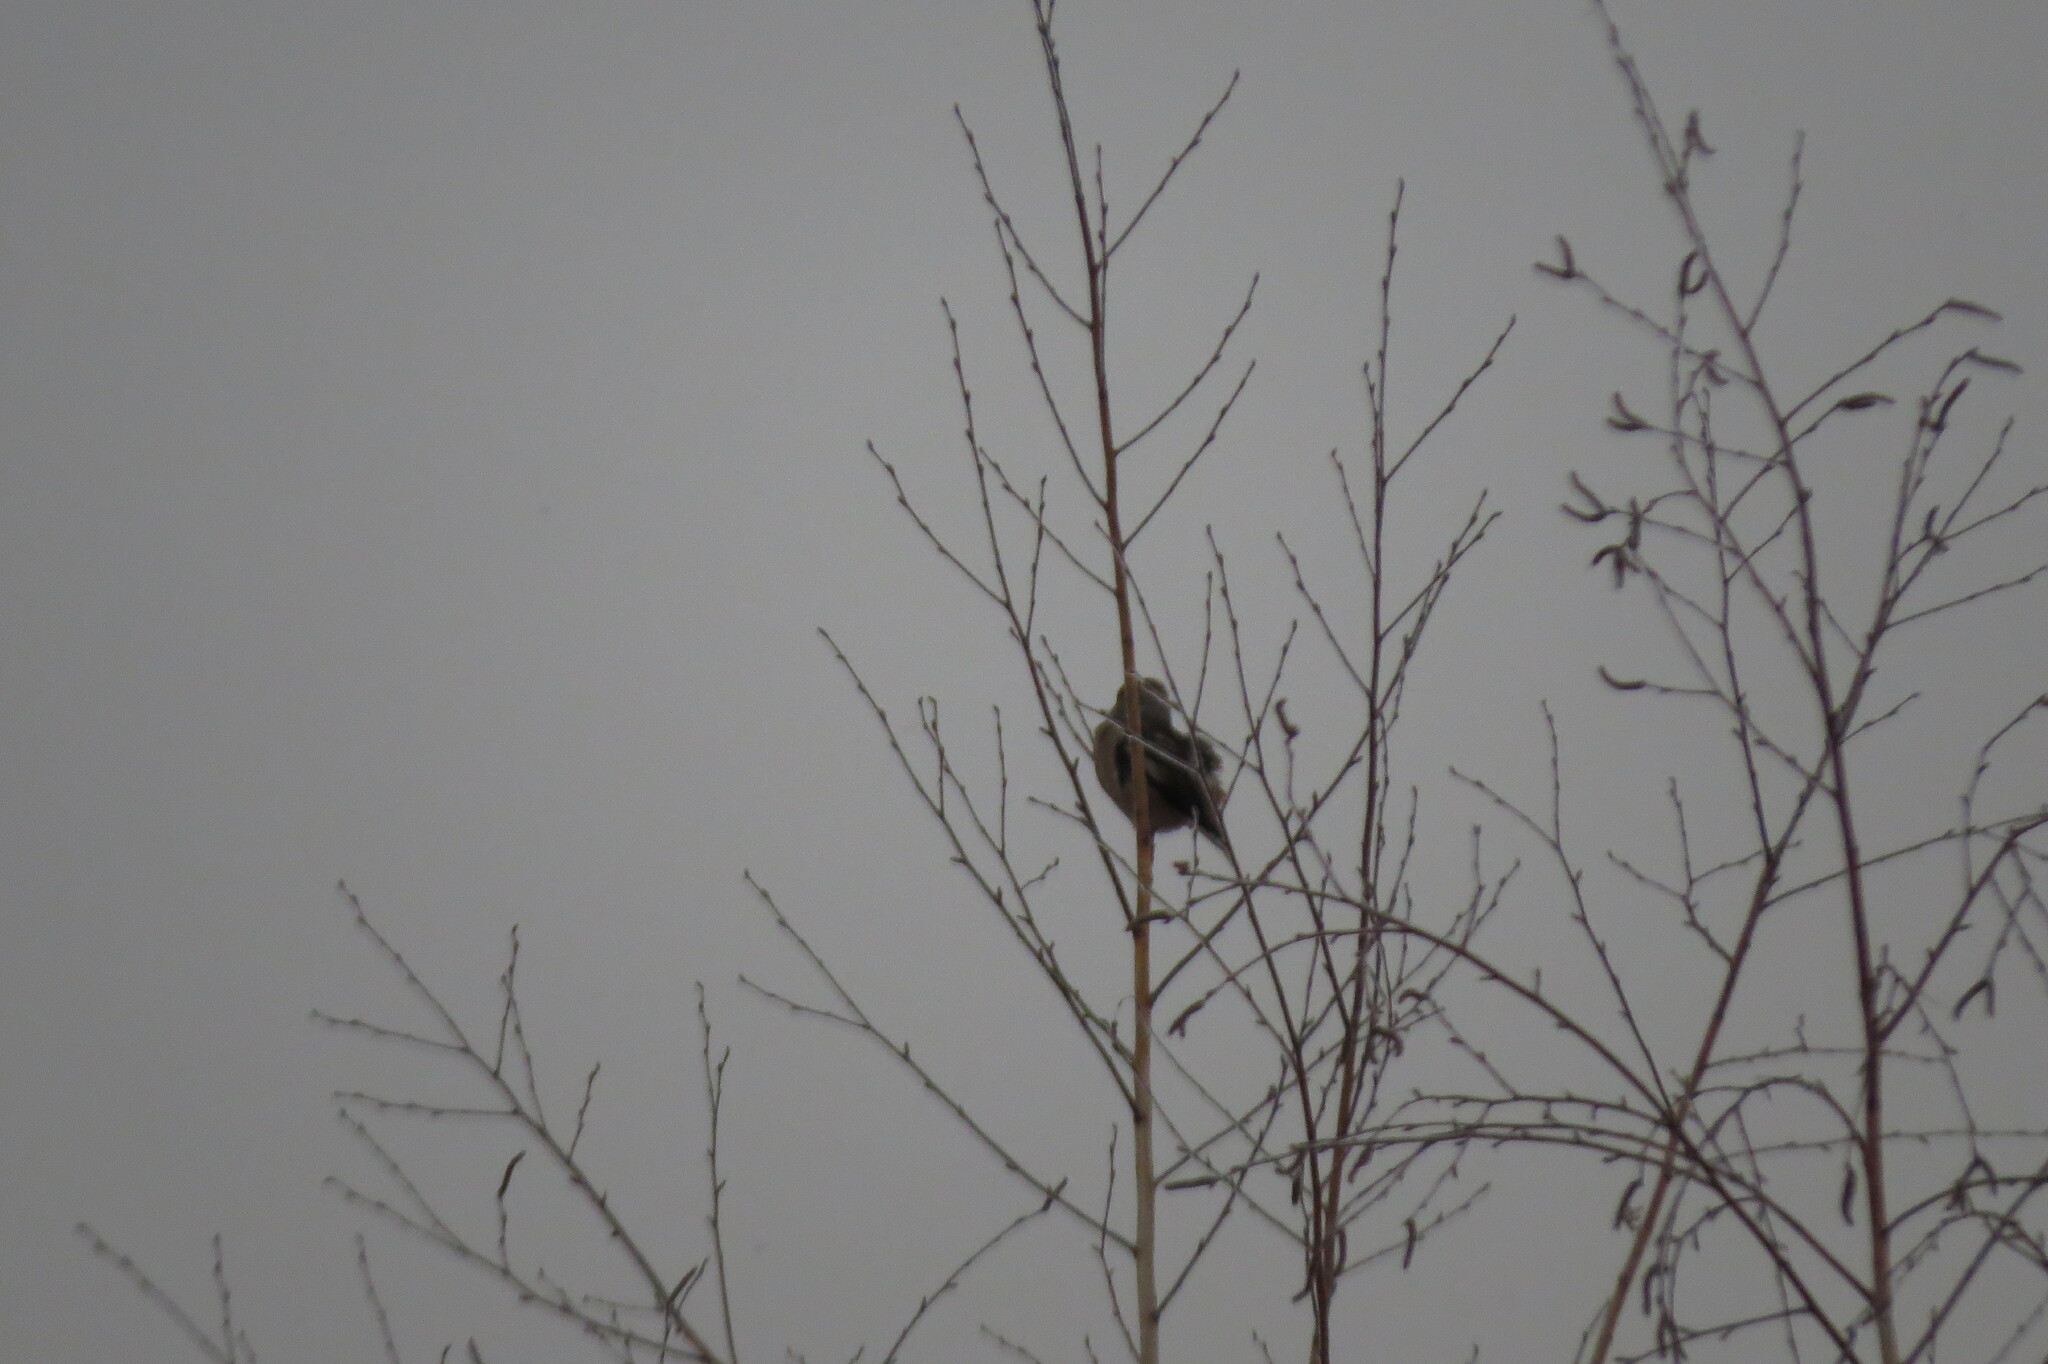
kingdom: Animalia
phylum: Chordata
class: Aves
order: Passeriformes
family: Fringillidae
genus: Coccothraustes
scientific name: Coccothraustes coccothraustes
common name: Hawfinch
